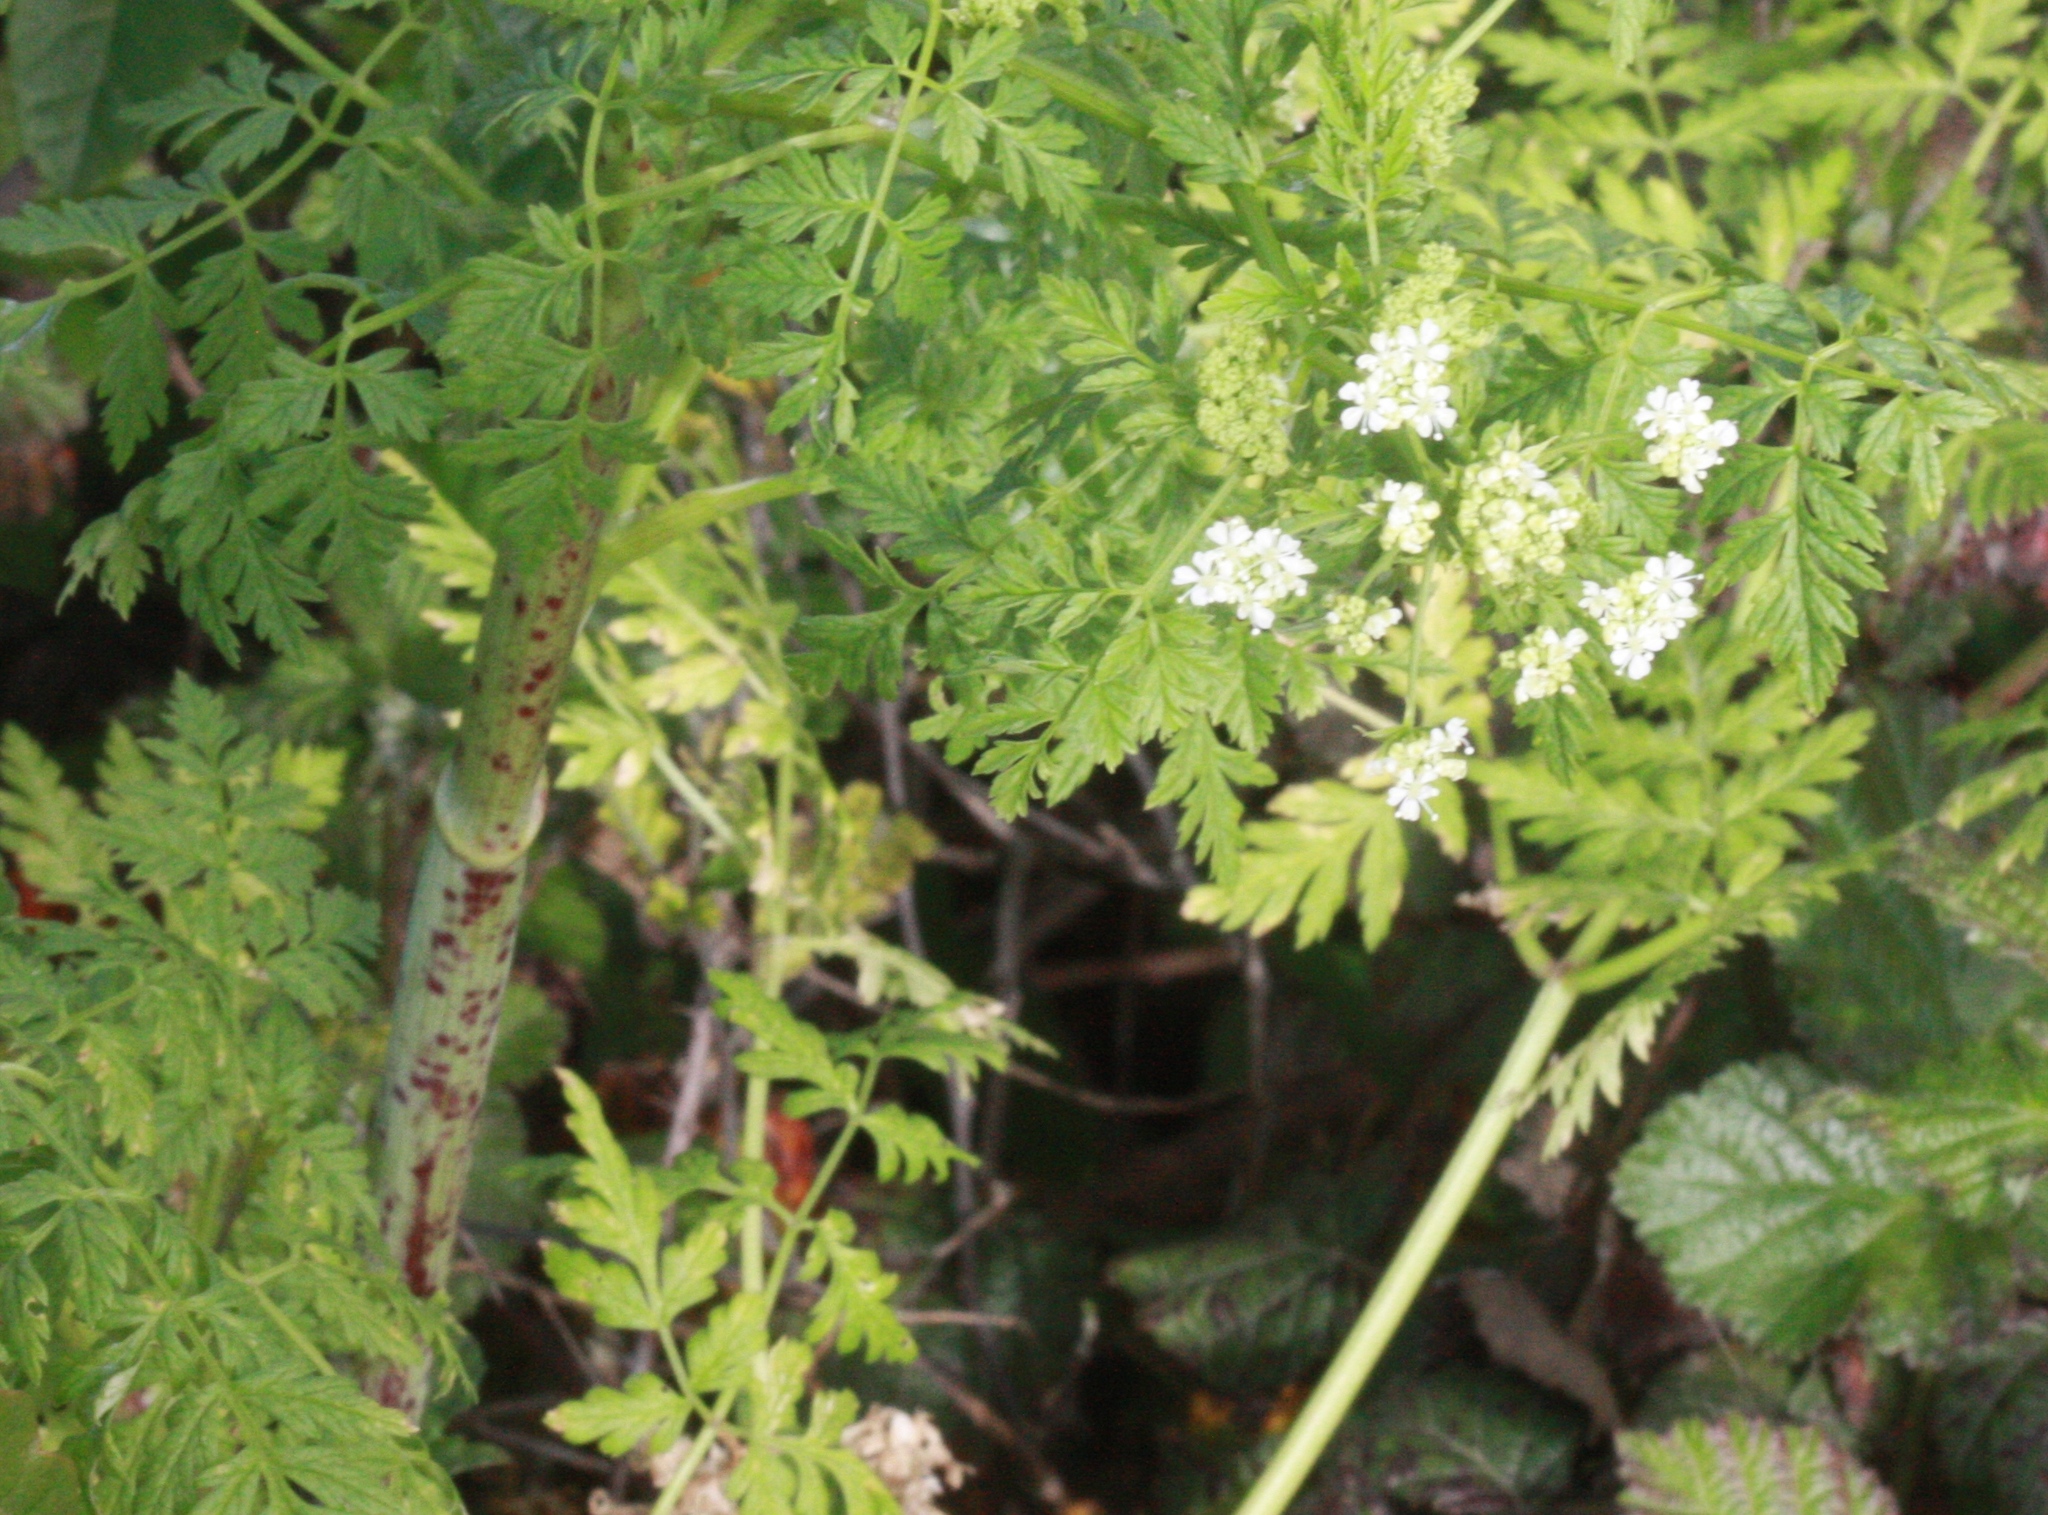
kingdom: Plantae
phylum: Tracheophyta
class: Magnoliopsida
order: Apiales
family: Apiaceae
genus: Conium
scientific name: Conium maculatum
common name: Hemlock
